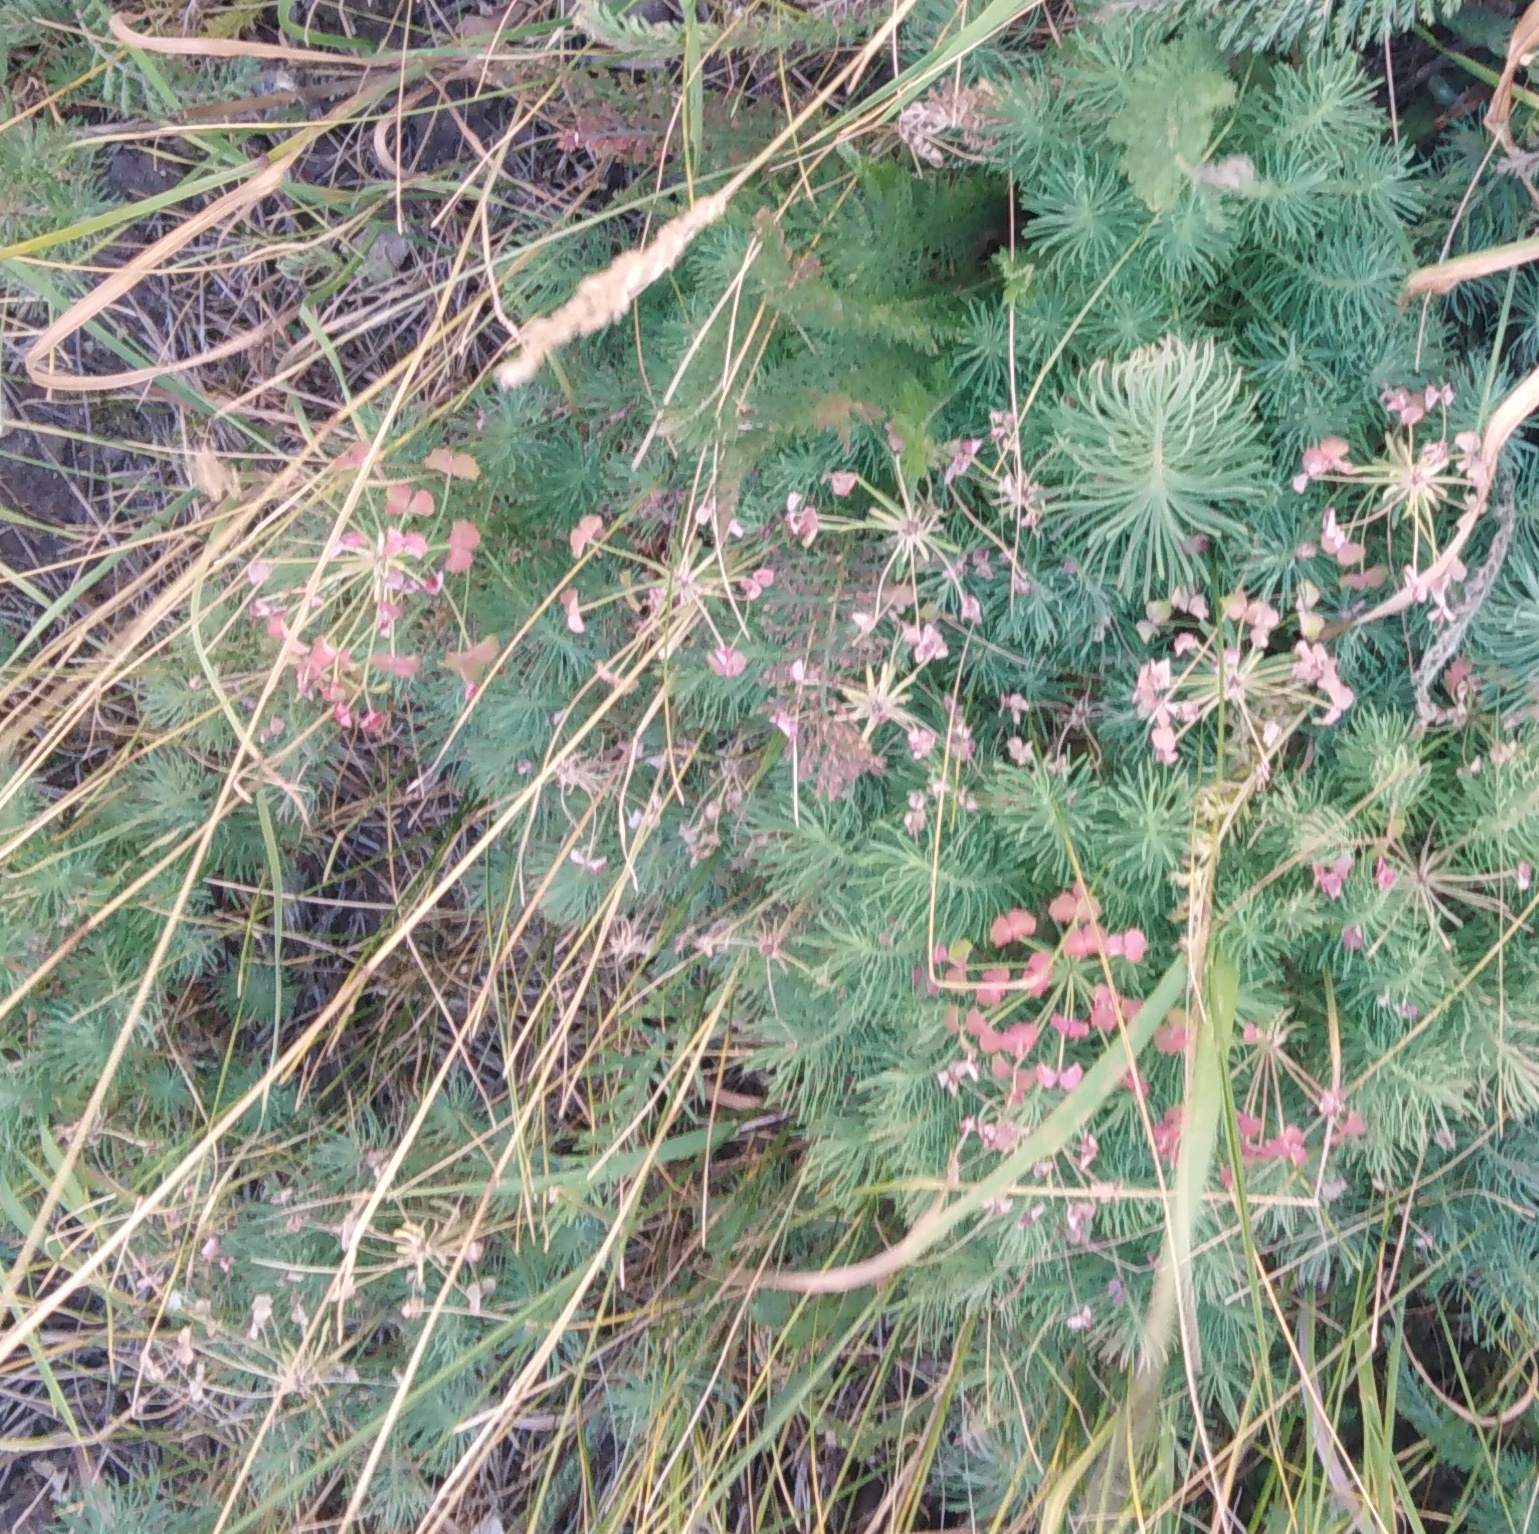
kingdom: Plantae
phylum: Tracheophyta
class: Magnoliopsida
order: Malpighiales
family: Euphorbiaceae
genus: Euphorbia
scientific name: Euphorbia cyparissias
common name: Cypress spurge
